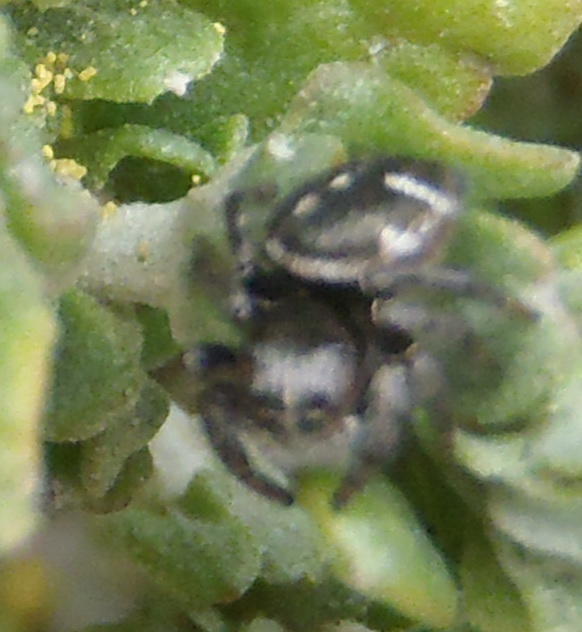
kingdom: Animalia
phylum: Arthropoda
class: Arachnida
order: Araneae
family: Salticidae
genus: Baryphas
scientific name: Baryphas ahenus
